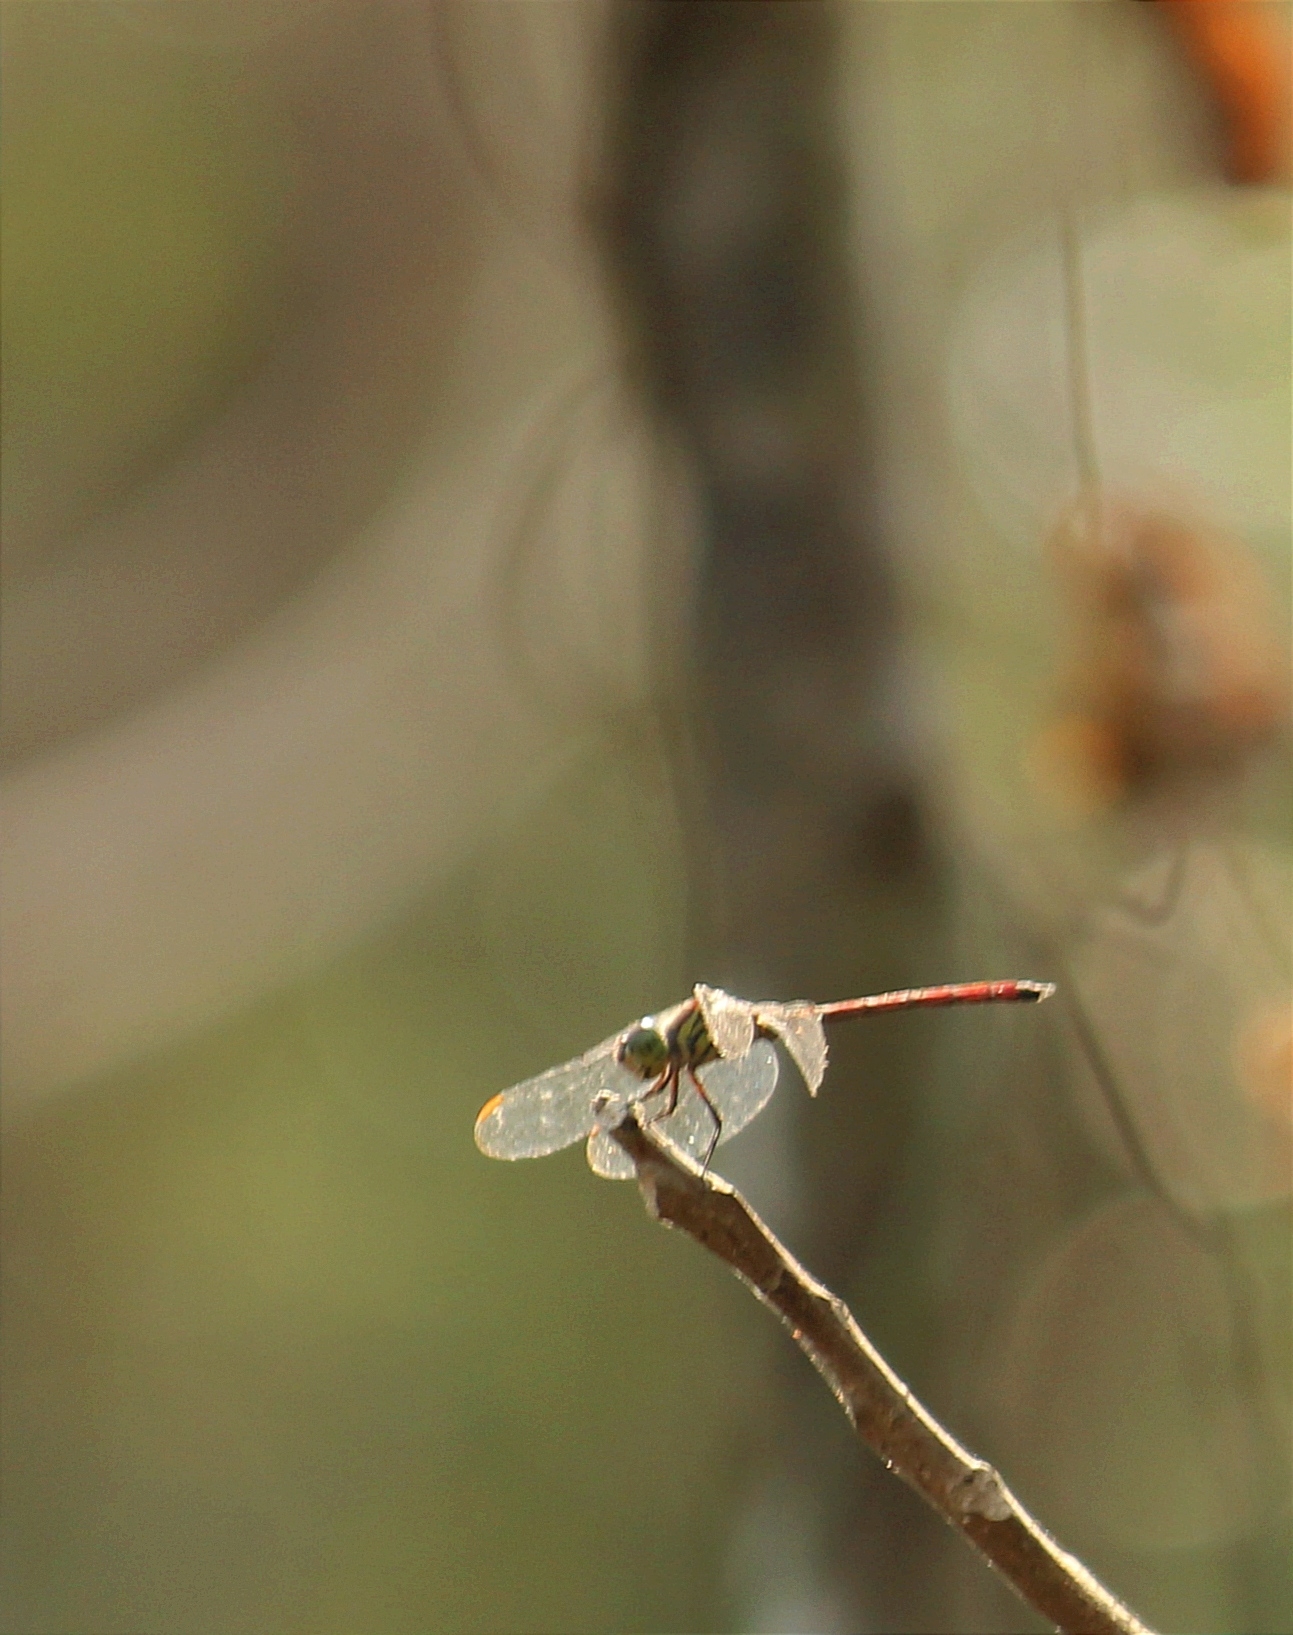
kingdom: Animalia
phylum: Arthropoda
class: Insecta
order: Odonata
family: Libellulidae
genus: Lathrecista
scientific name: Lathrecista asiatica
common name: Scarlet grenadier
